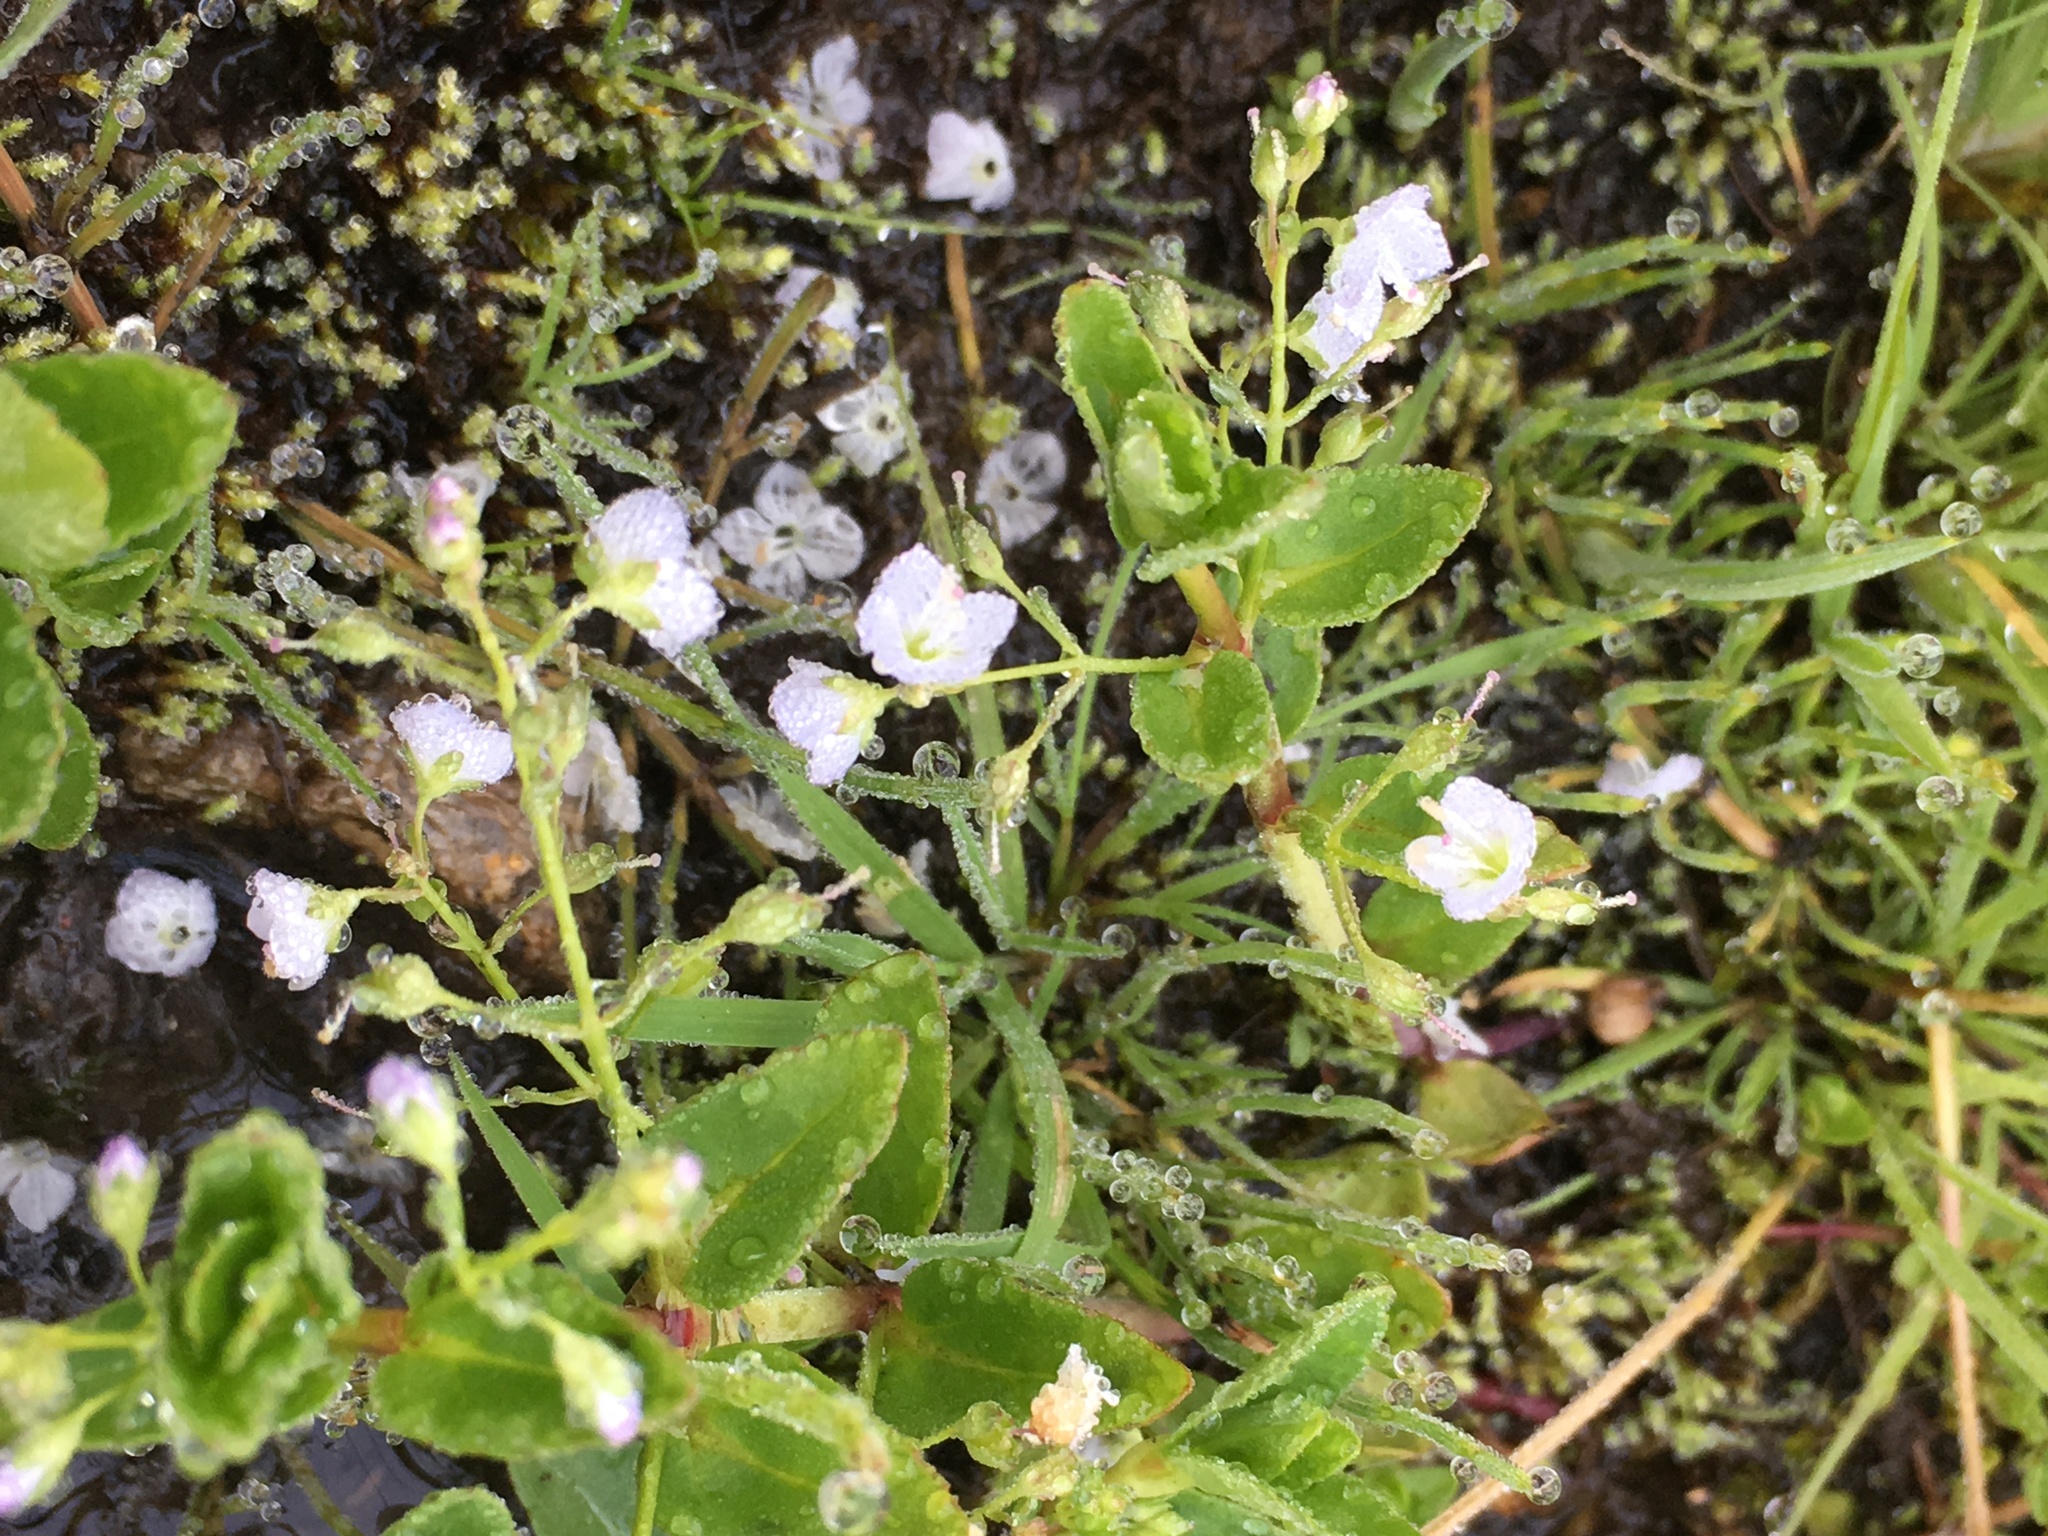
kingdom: Plantae
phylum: Tracheophyta
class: Magnoliopsida
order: Lamiales
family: Plantaginaceae
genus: Veronica
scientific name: Veronica americana
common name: American brooklime
